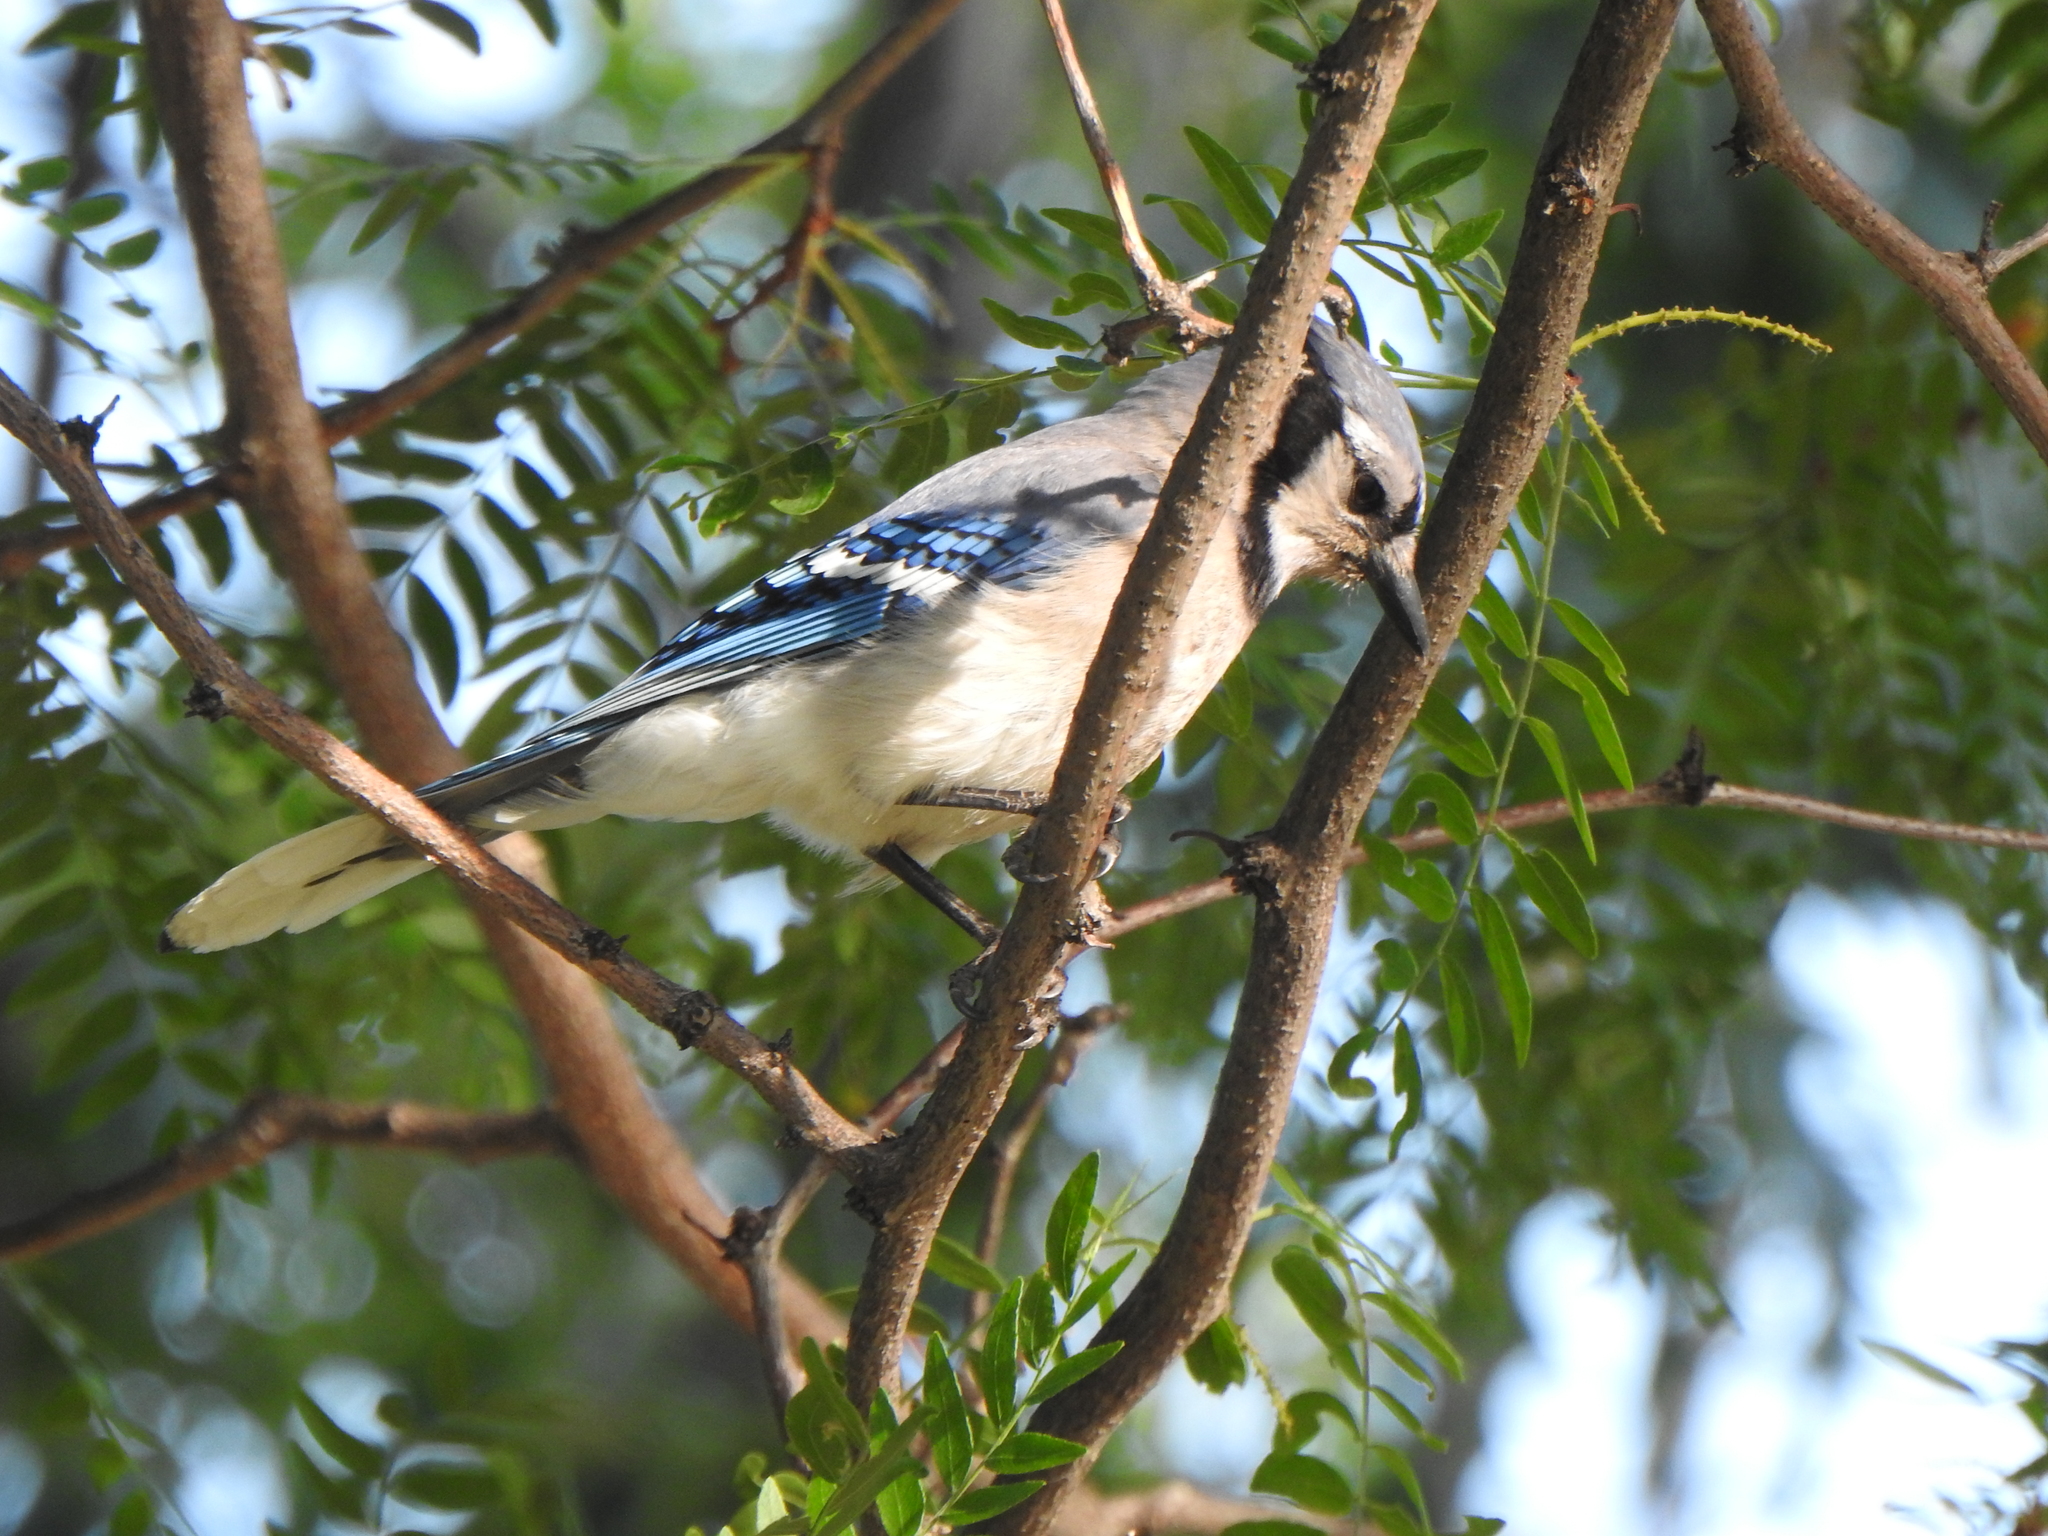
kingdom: Animalia
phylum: Chordata
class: Aves
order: Passeriformes
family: Corvidae
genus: Cyanocitta
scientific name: Cyanocitta cristata
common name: Blue jay
